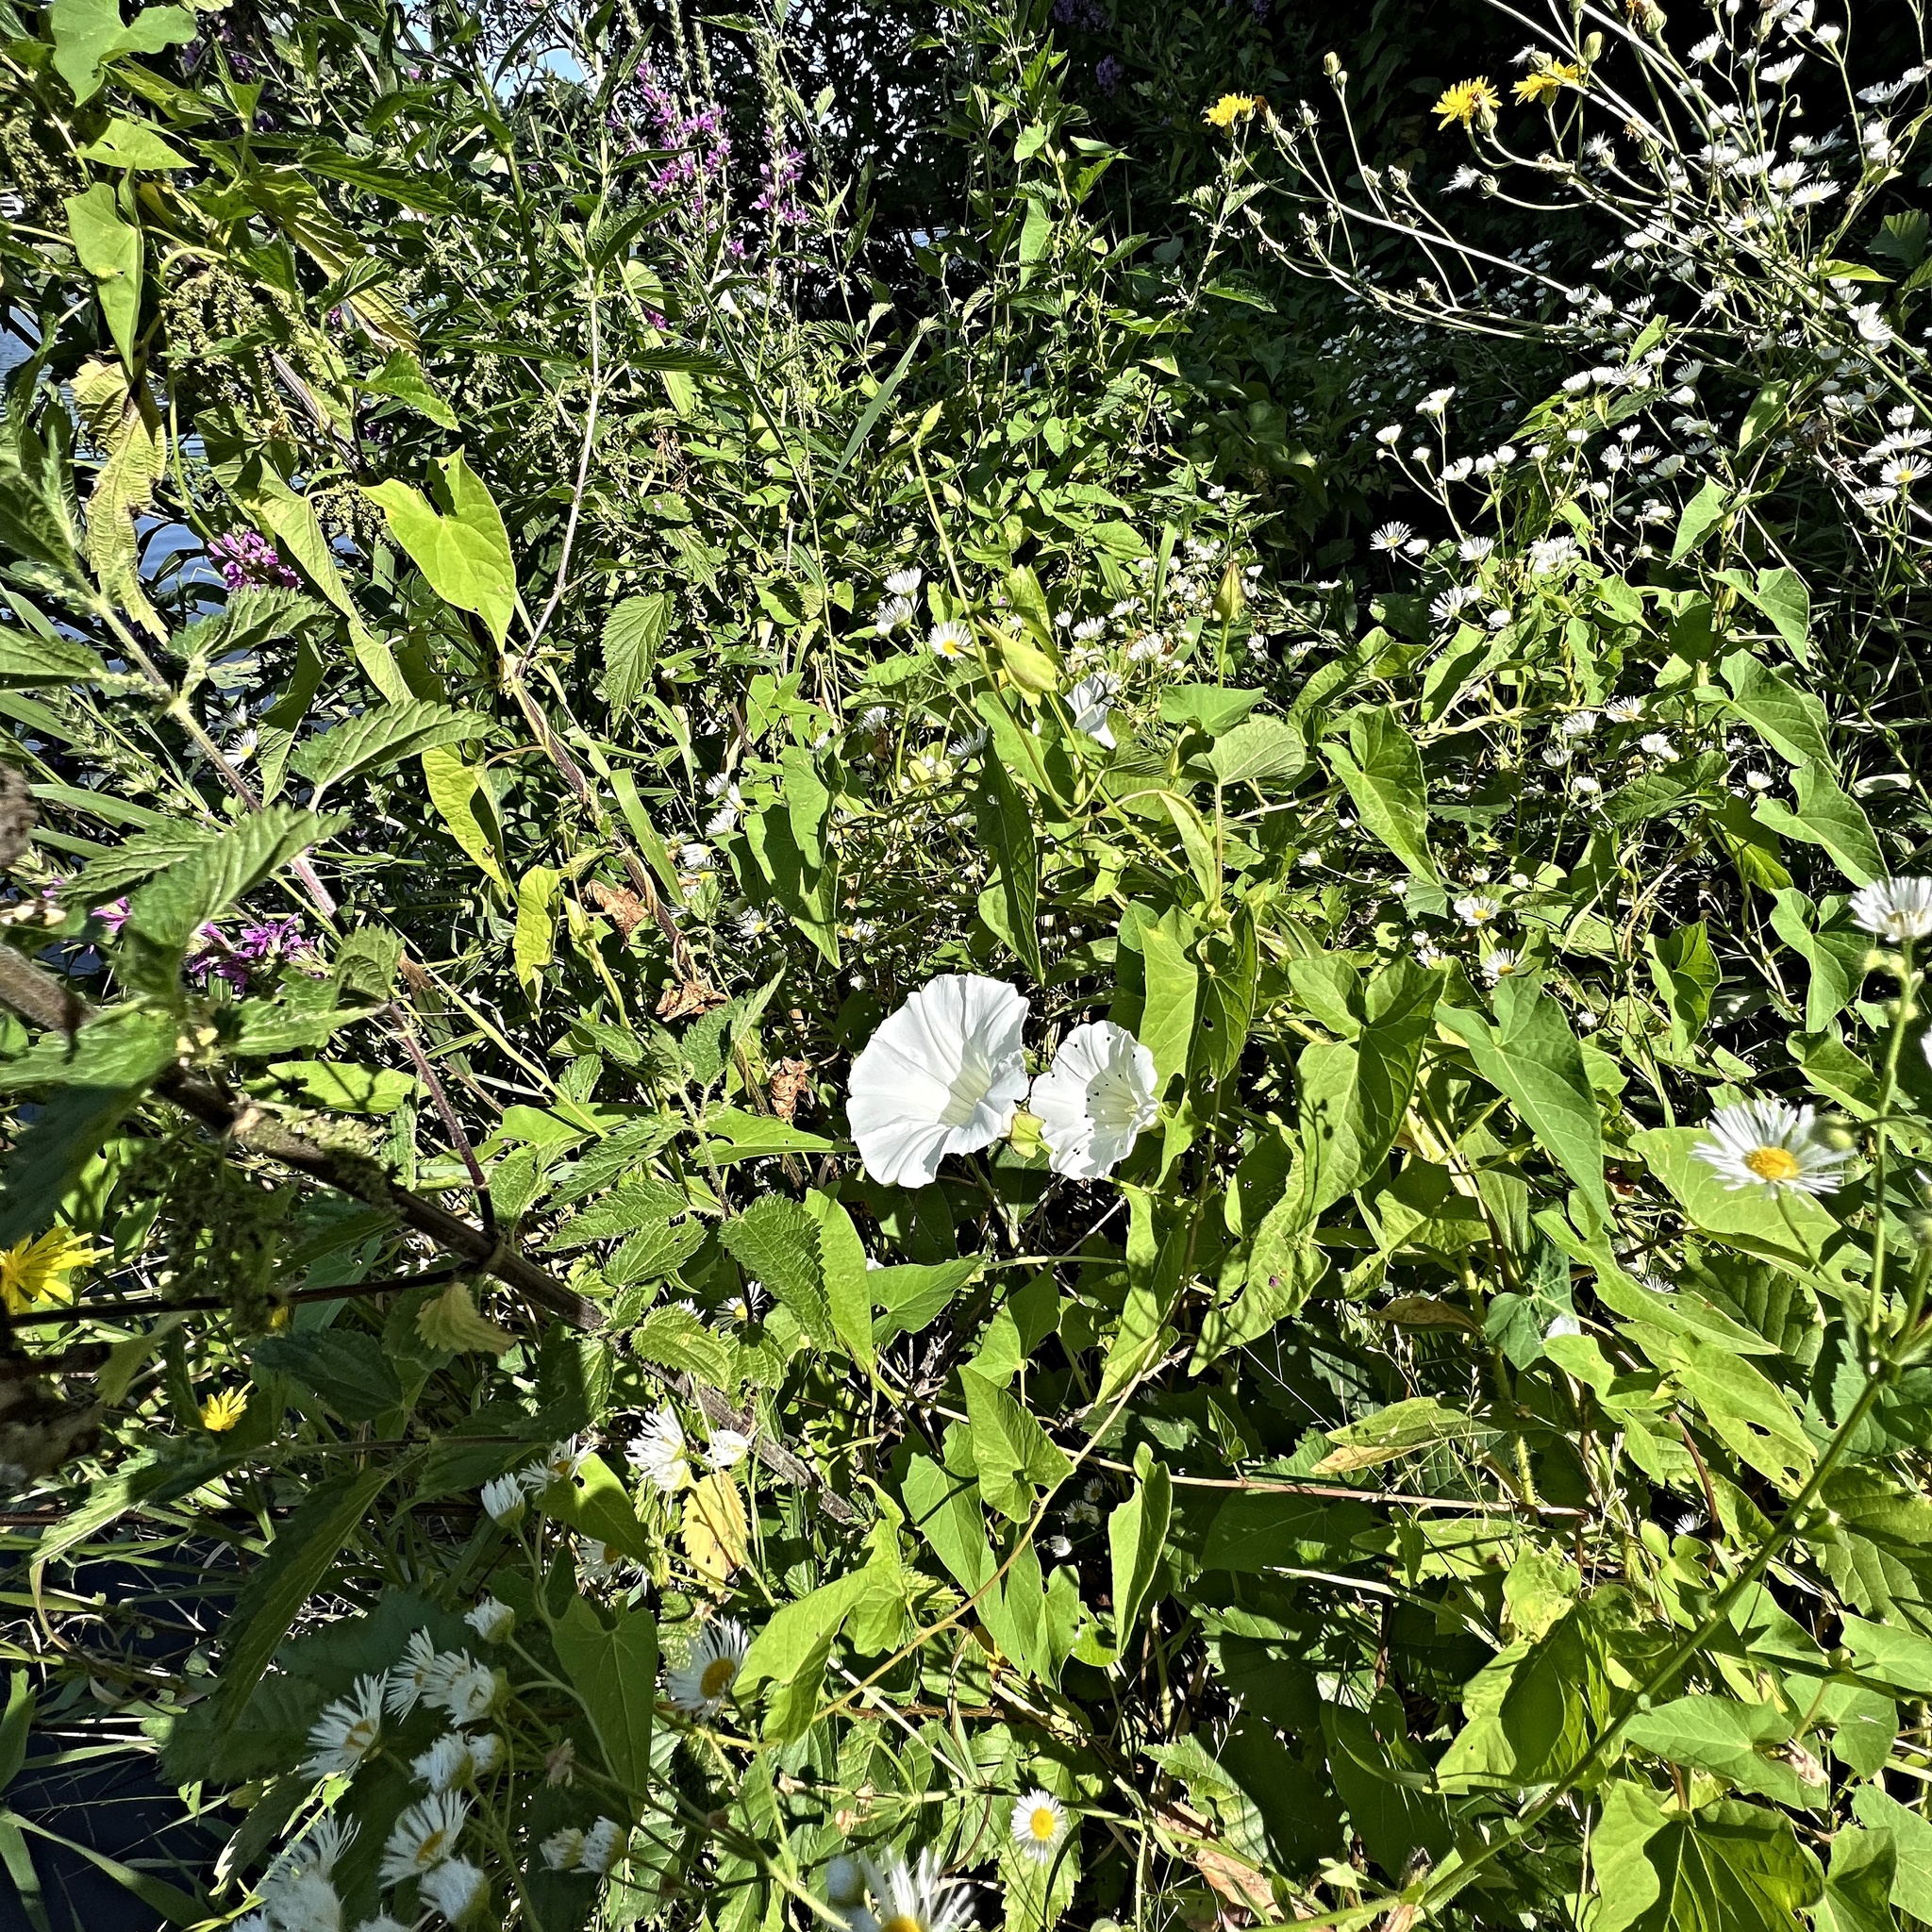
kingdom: Plantae
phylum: Tracheophyta
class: Magnoliopsida
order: Solanales
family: Convolvulaceae
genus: Calystegia
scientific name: Calystegia sepium
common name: Hedge bindweed
